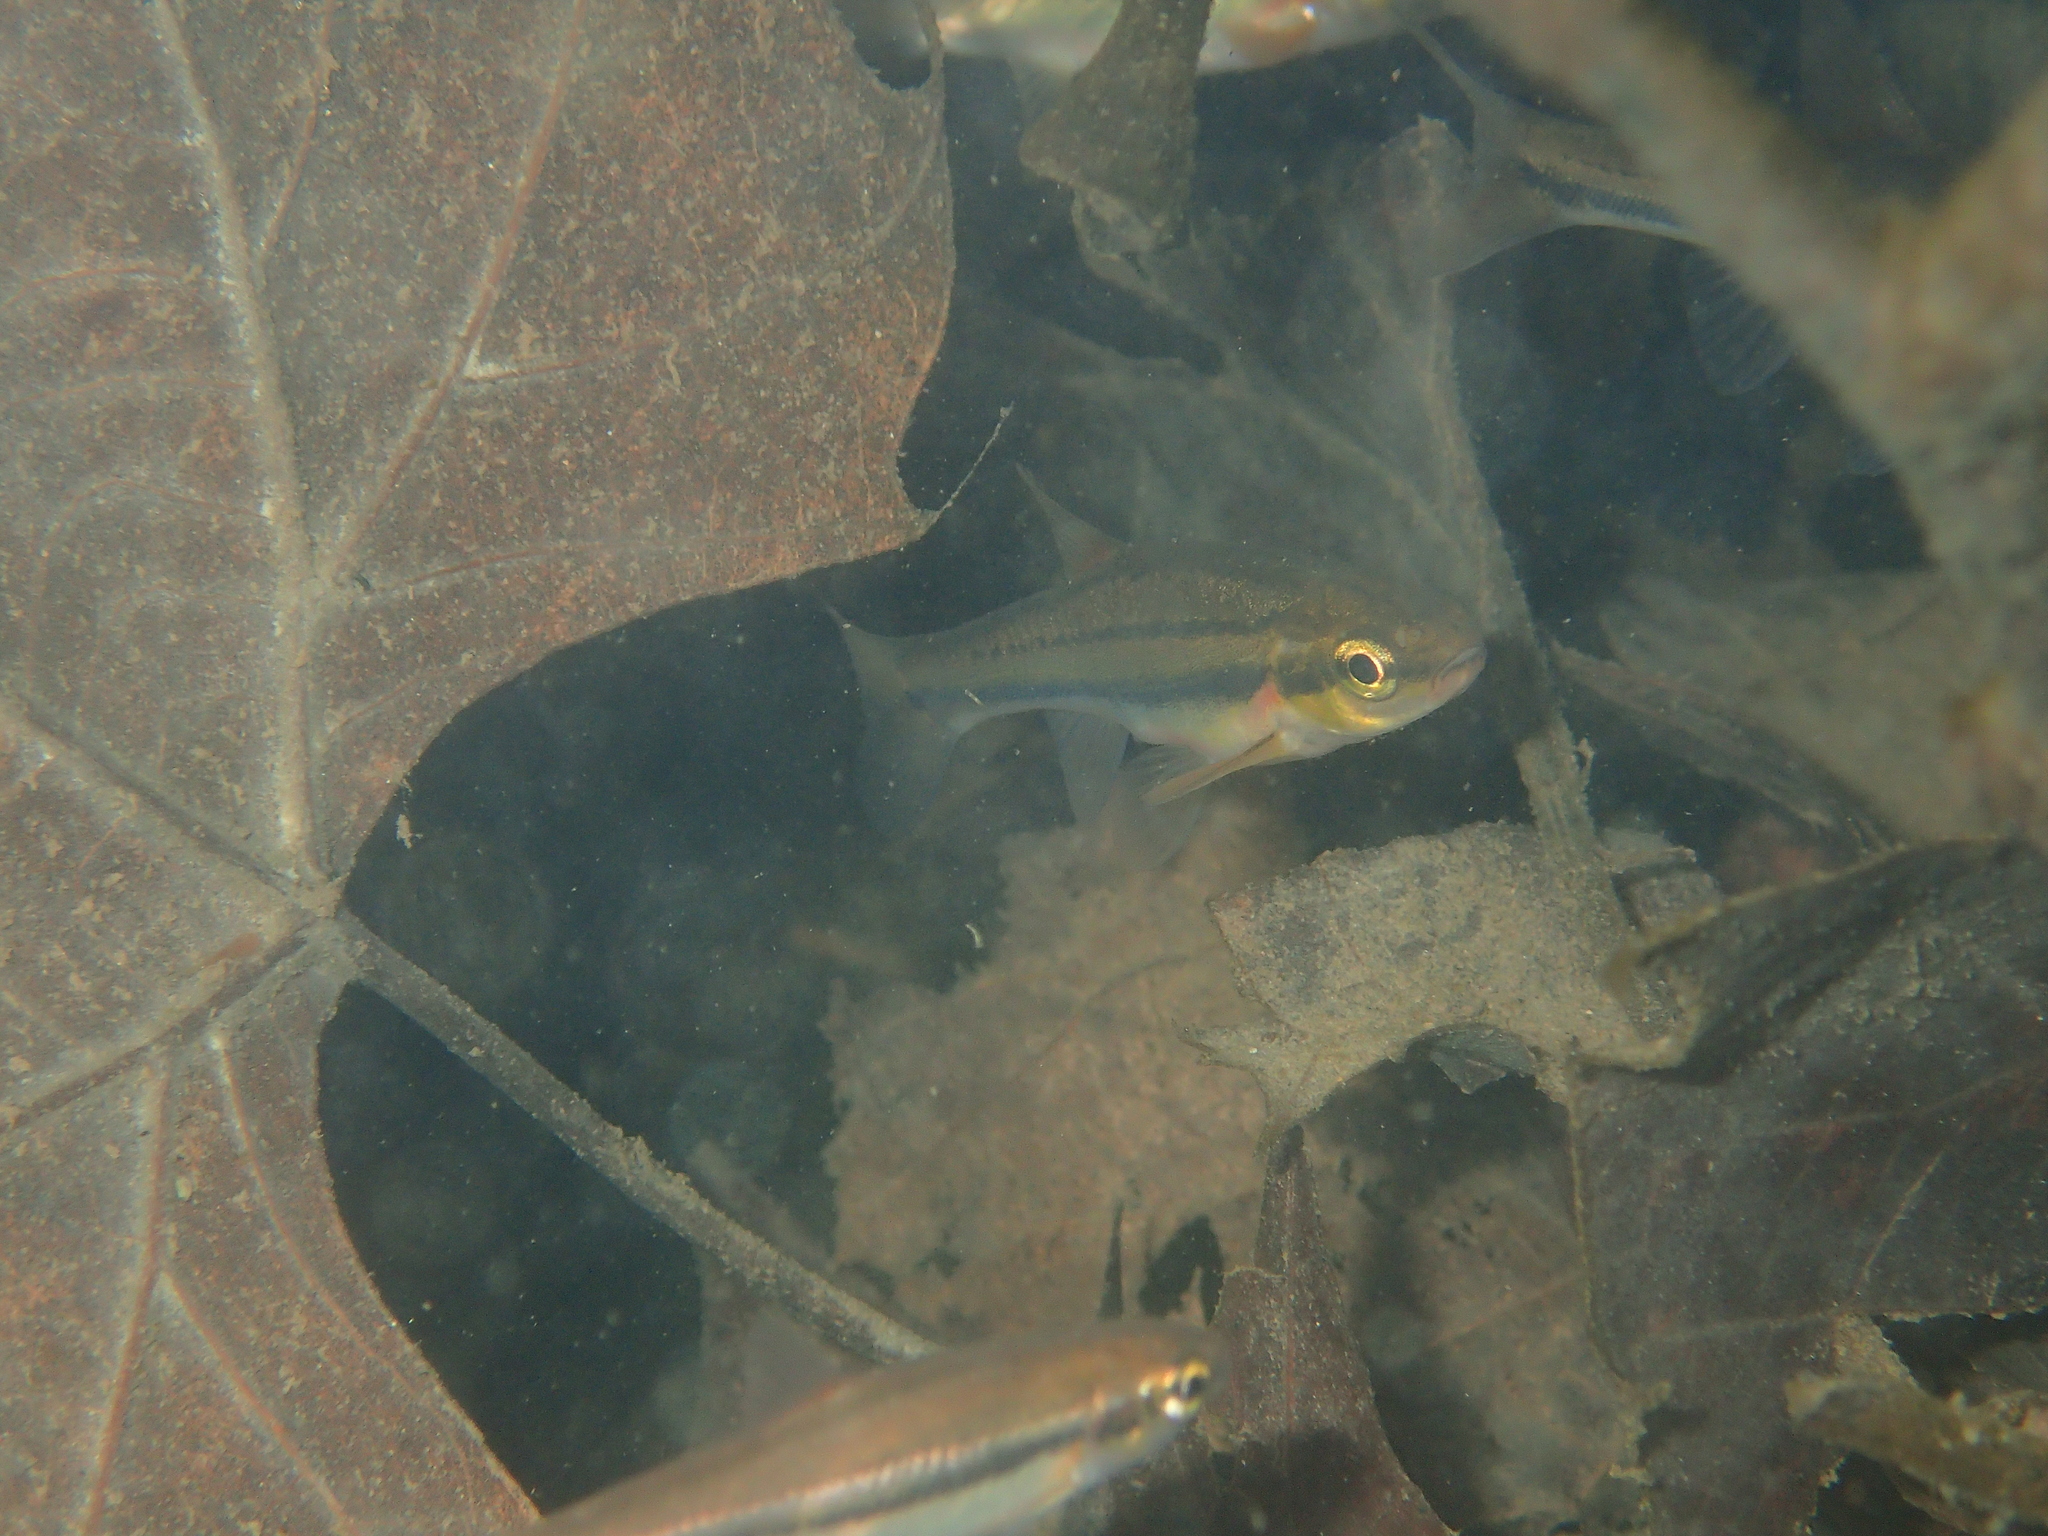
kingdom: Animalia
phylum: Chordata
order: Cypriniformes
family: Cyprinidae
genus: Chrosomus
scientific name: Chrosomus erythrogaster
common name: Southern redbelly dace
